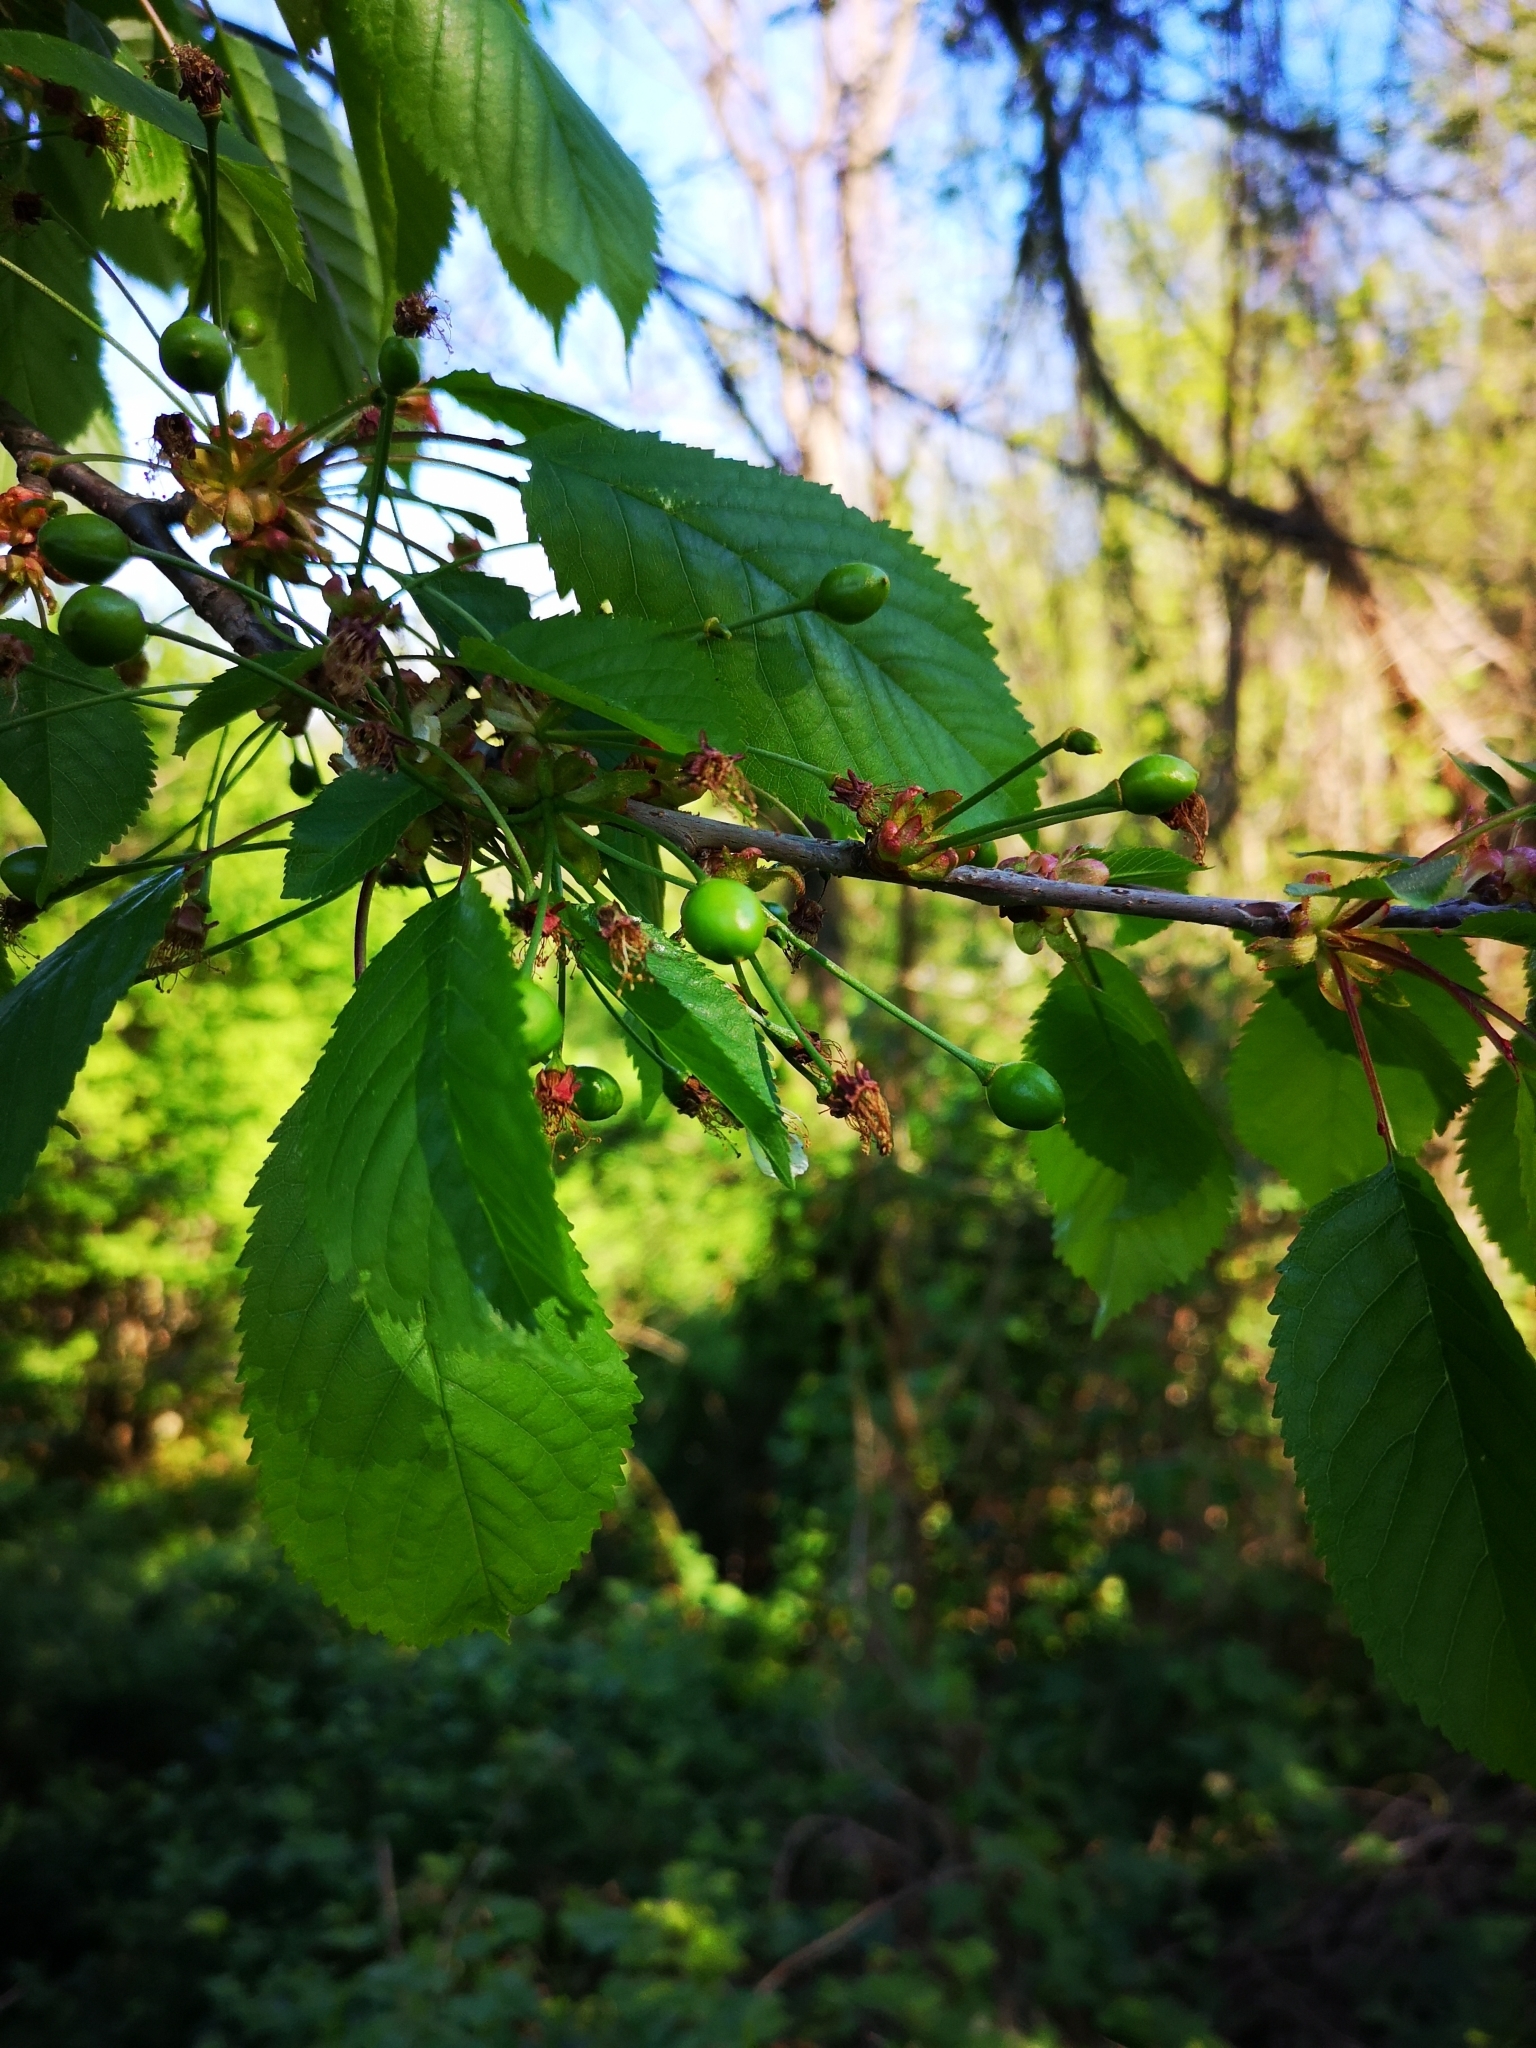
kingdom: Plantae
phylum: Tracheophyta
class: Magnoliopsida
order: Rosales
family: Rosaceae
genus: Prunus
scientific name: Prunus avium
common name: Sweet cherry
